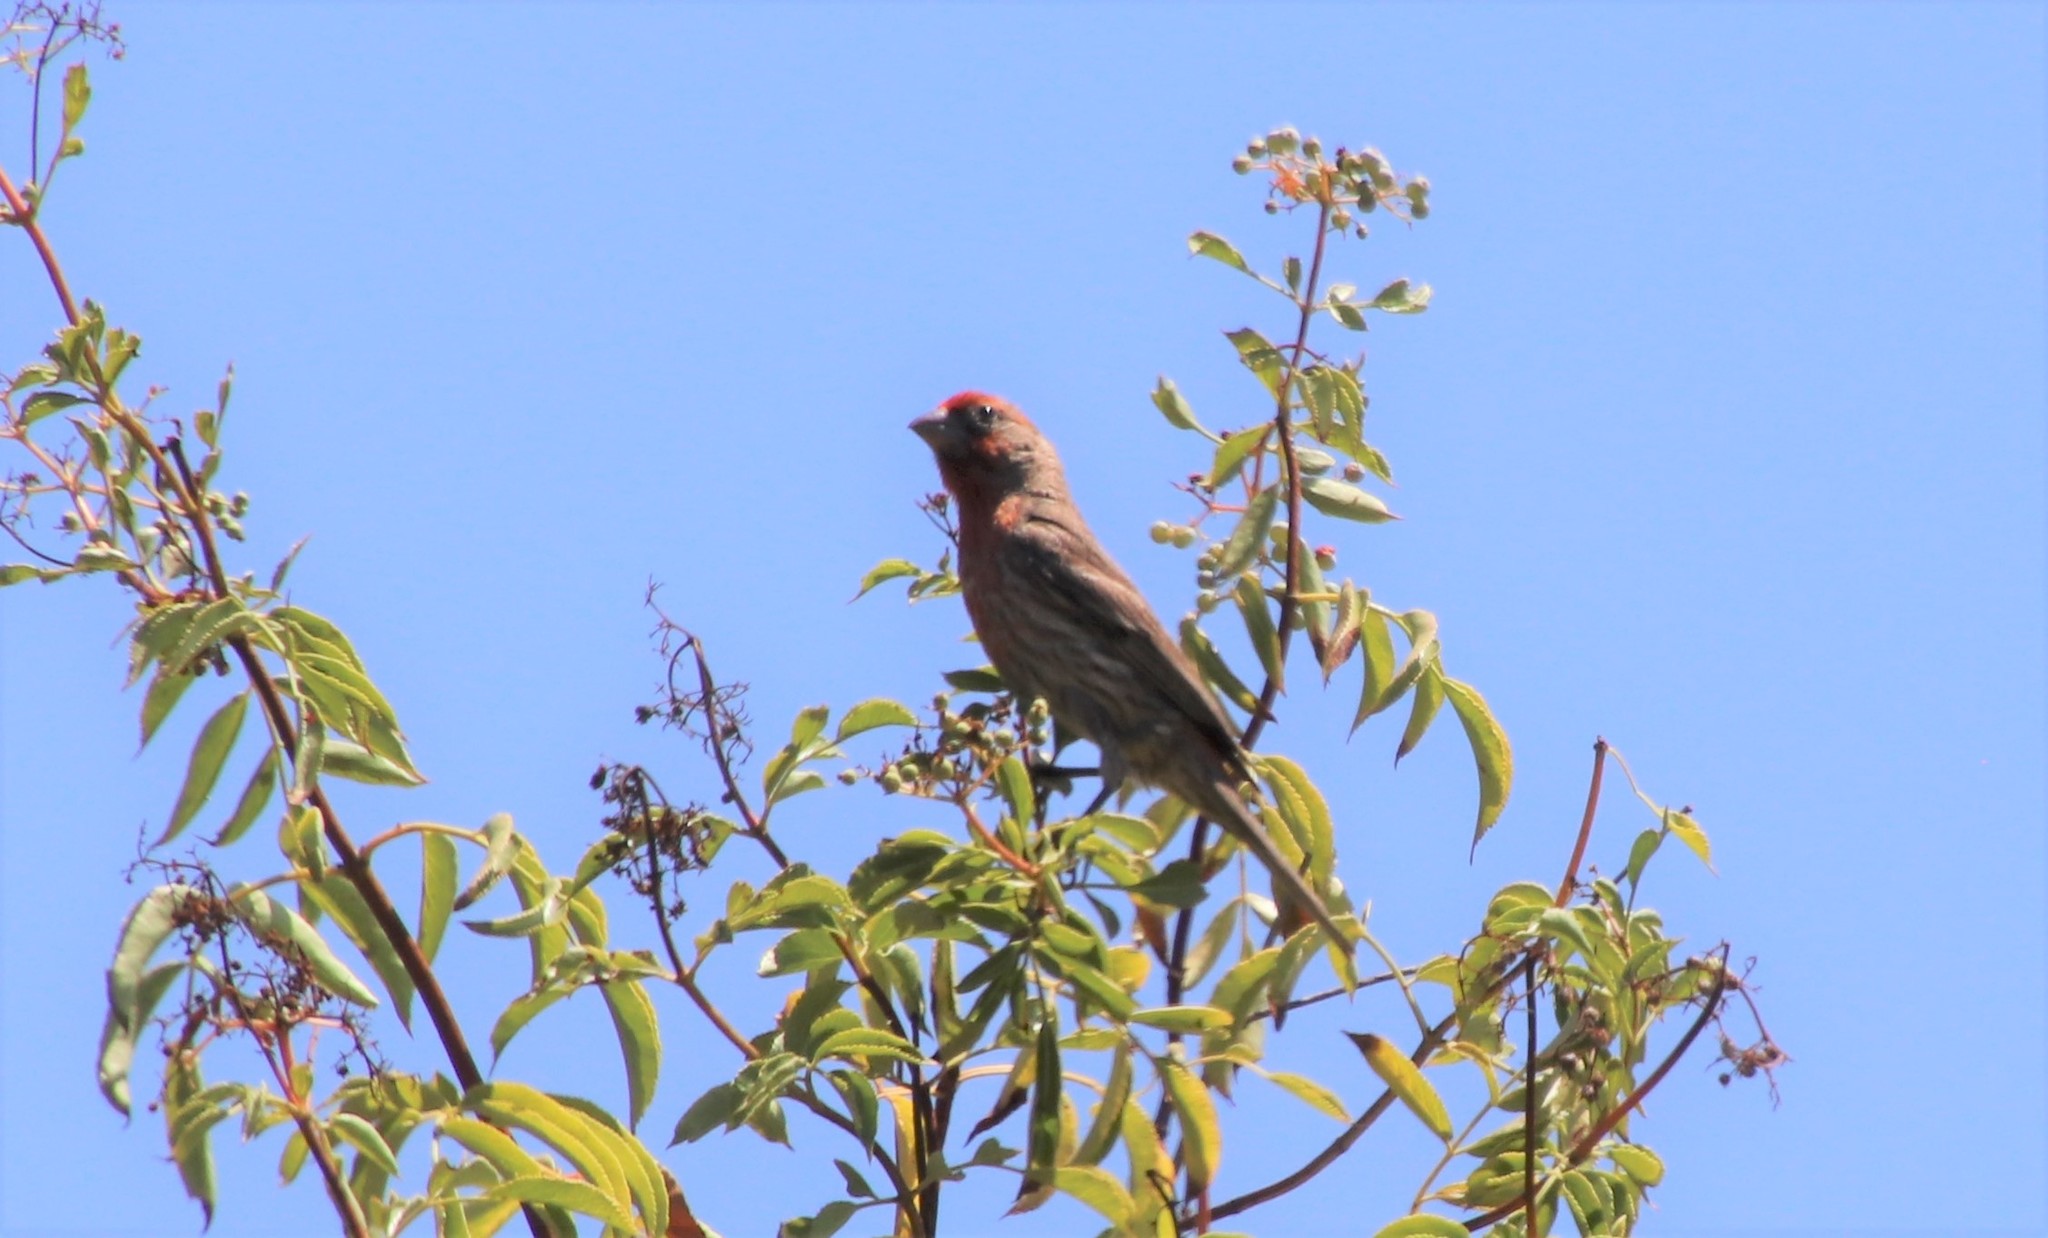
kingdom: Animalia
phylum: Chordata
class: Aves
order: Passeriformes
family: Fringillidae
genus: Haemorhous
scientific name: Haemorhous mexicanus
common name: House finch
